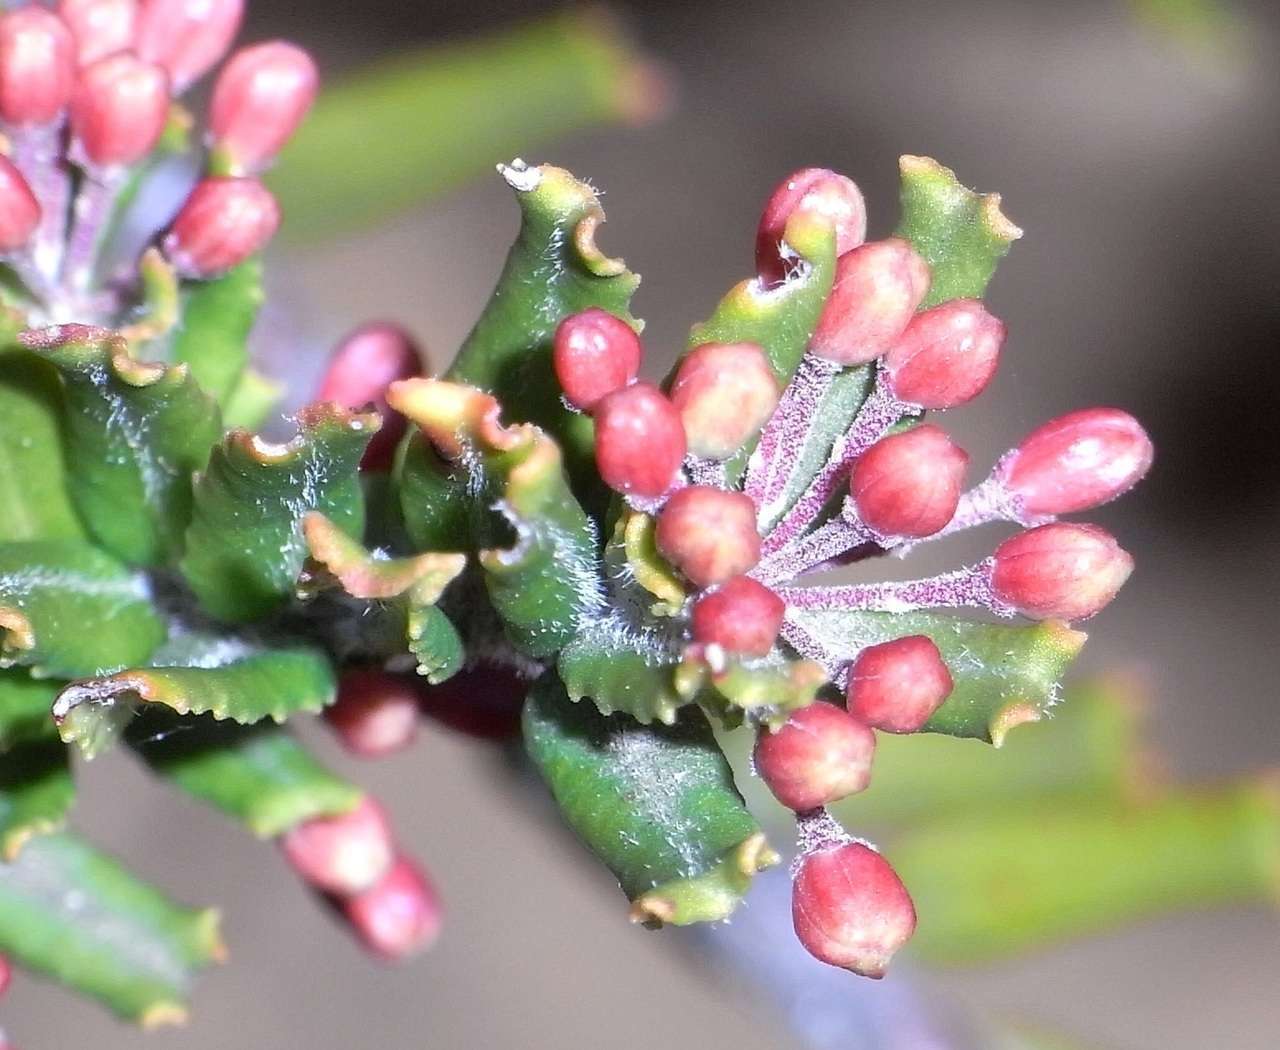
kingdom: Plantae
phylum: Tracheophyta
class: Magnoliopsida
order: Sapindales
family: Rutaceae
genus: Leionema
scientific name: Leionema bilobum
